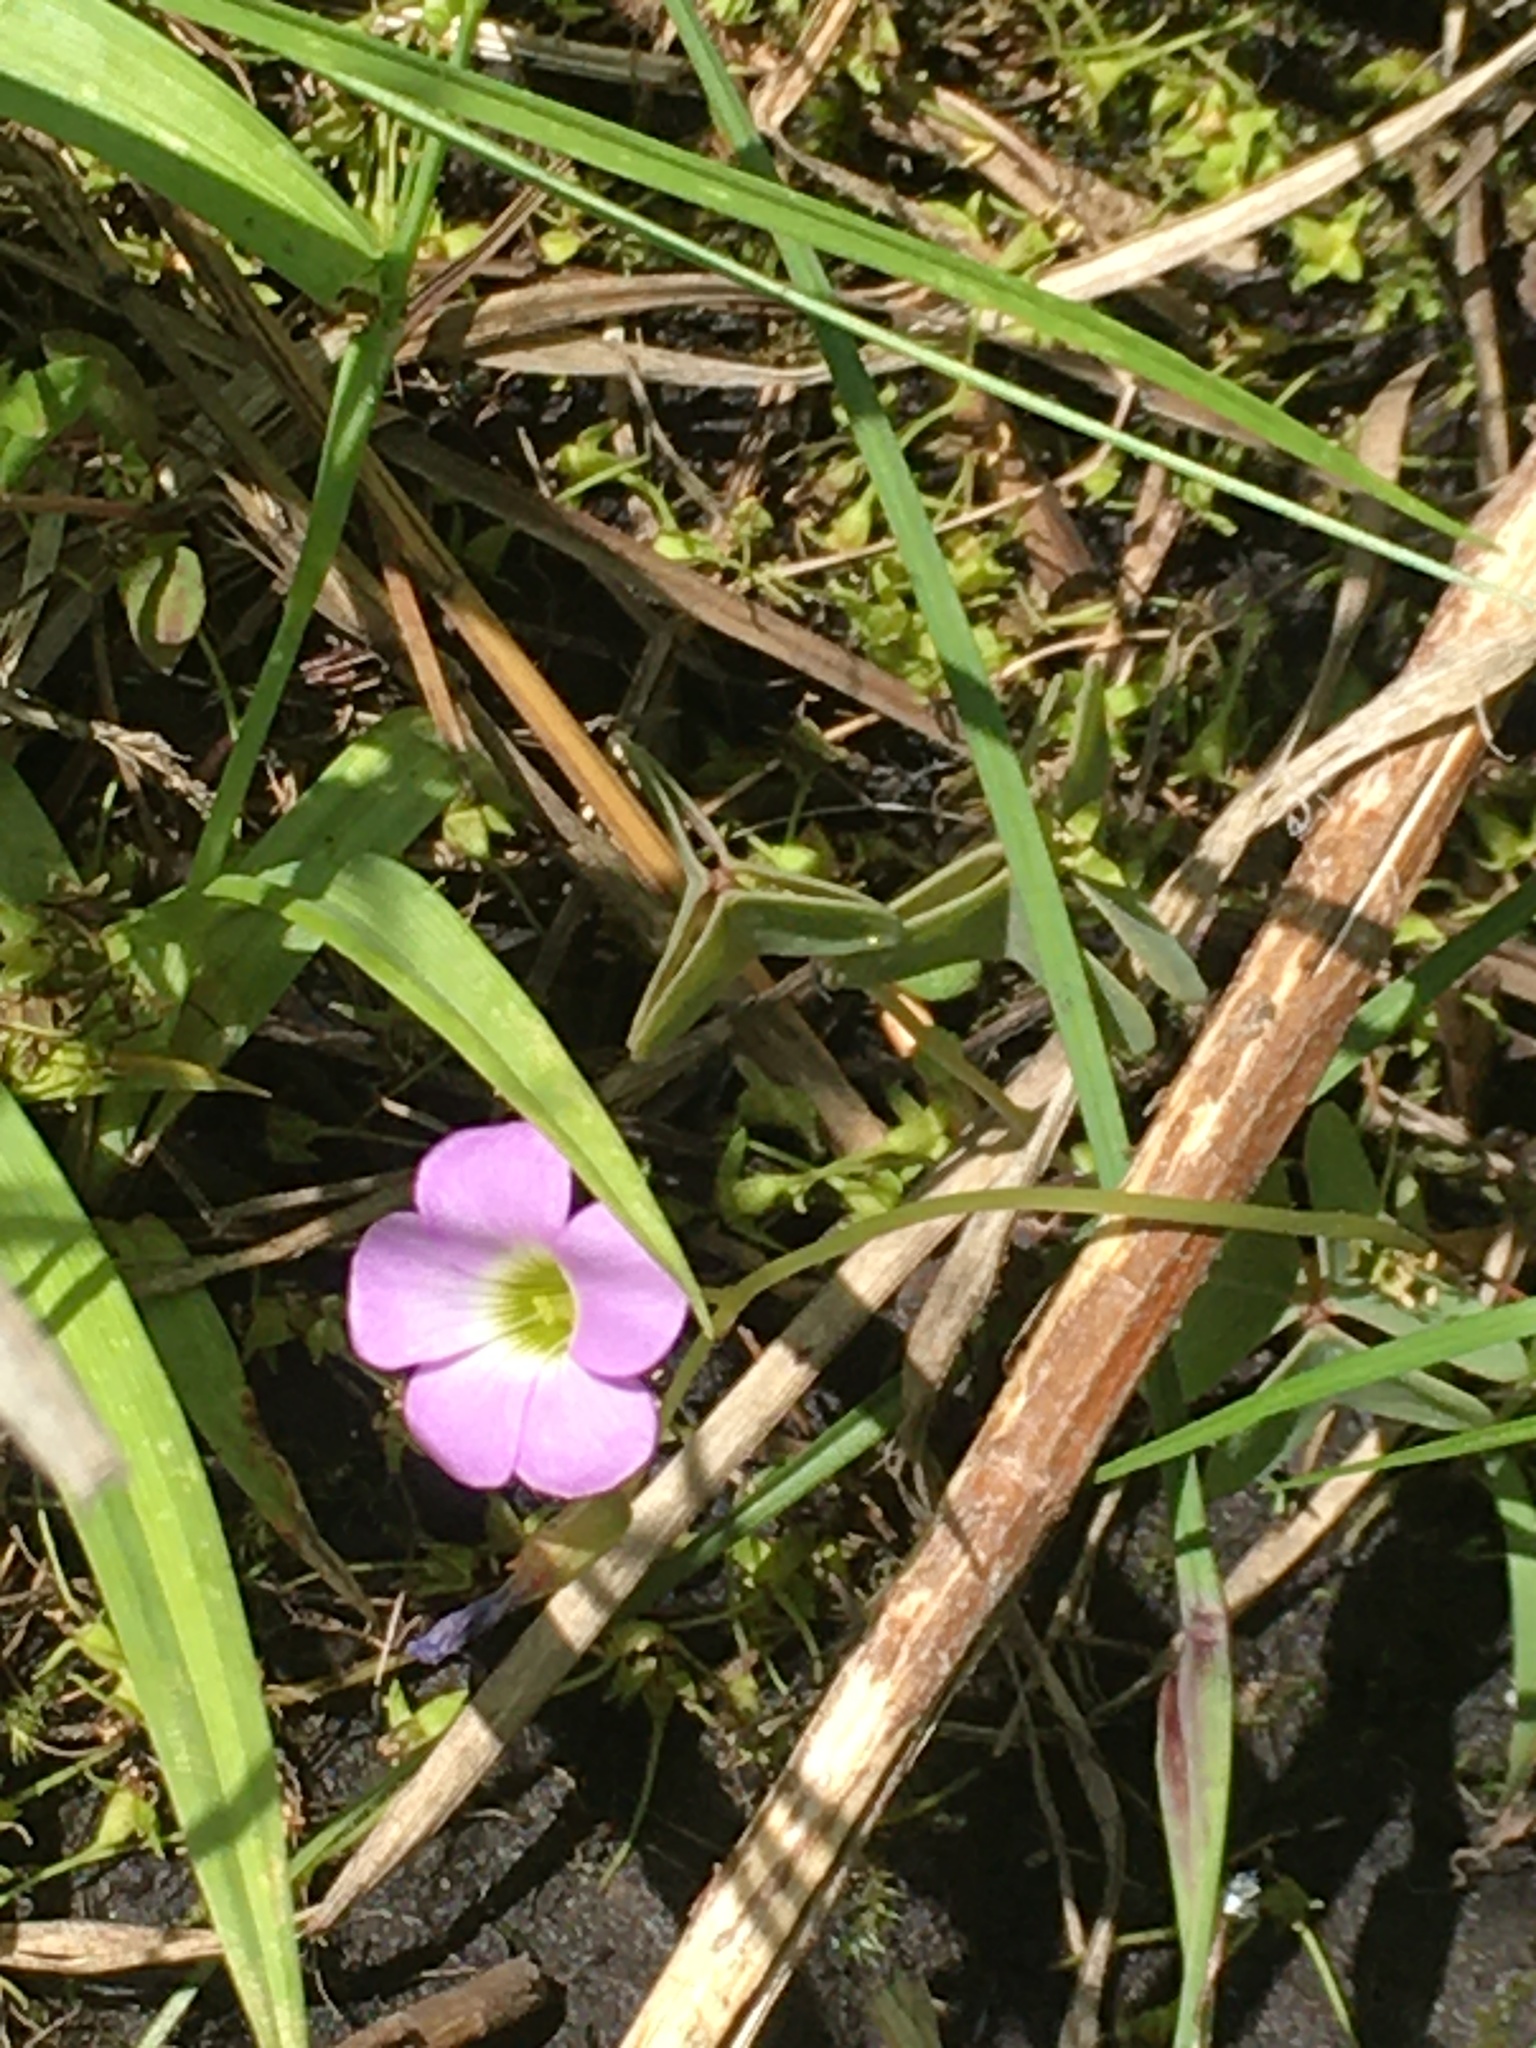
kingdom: Plantae
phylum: Tracheophyta
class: Magnoliopsida
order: Oxalidales
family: Oxalidaceae
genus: Oxalis
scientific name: Oxalis violacea
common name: Violet wood-sorrel
